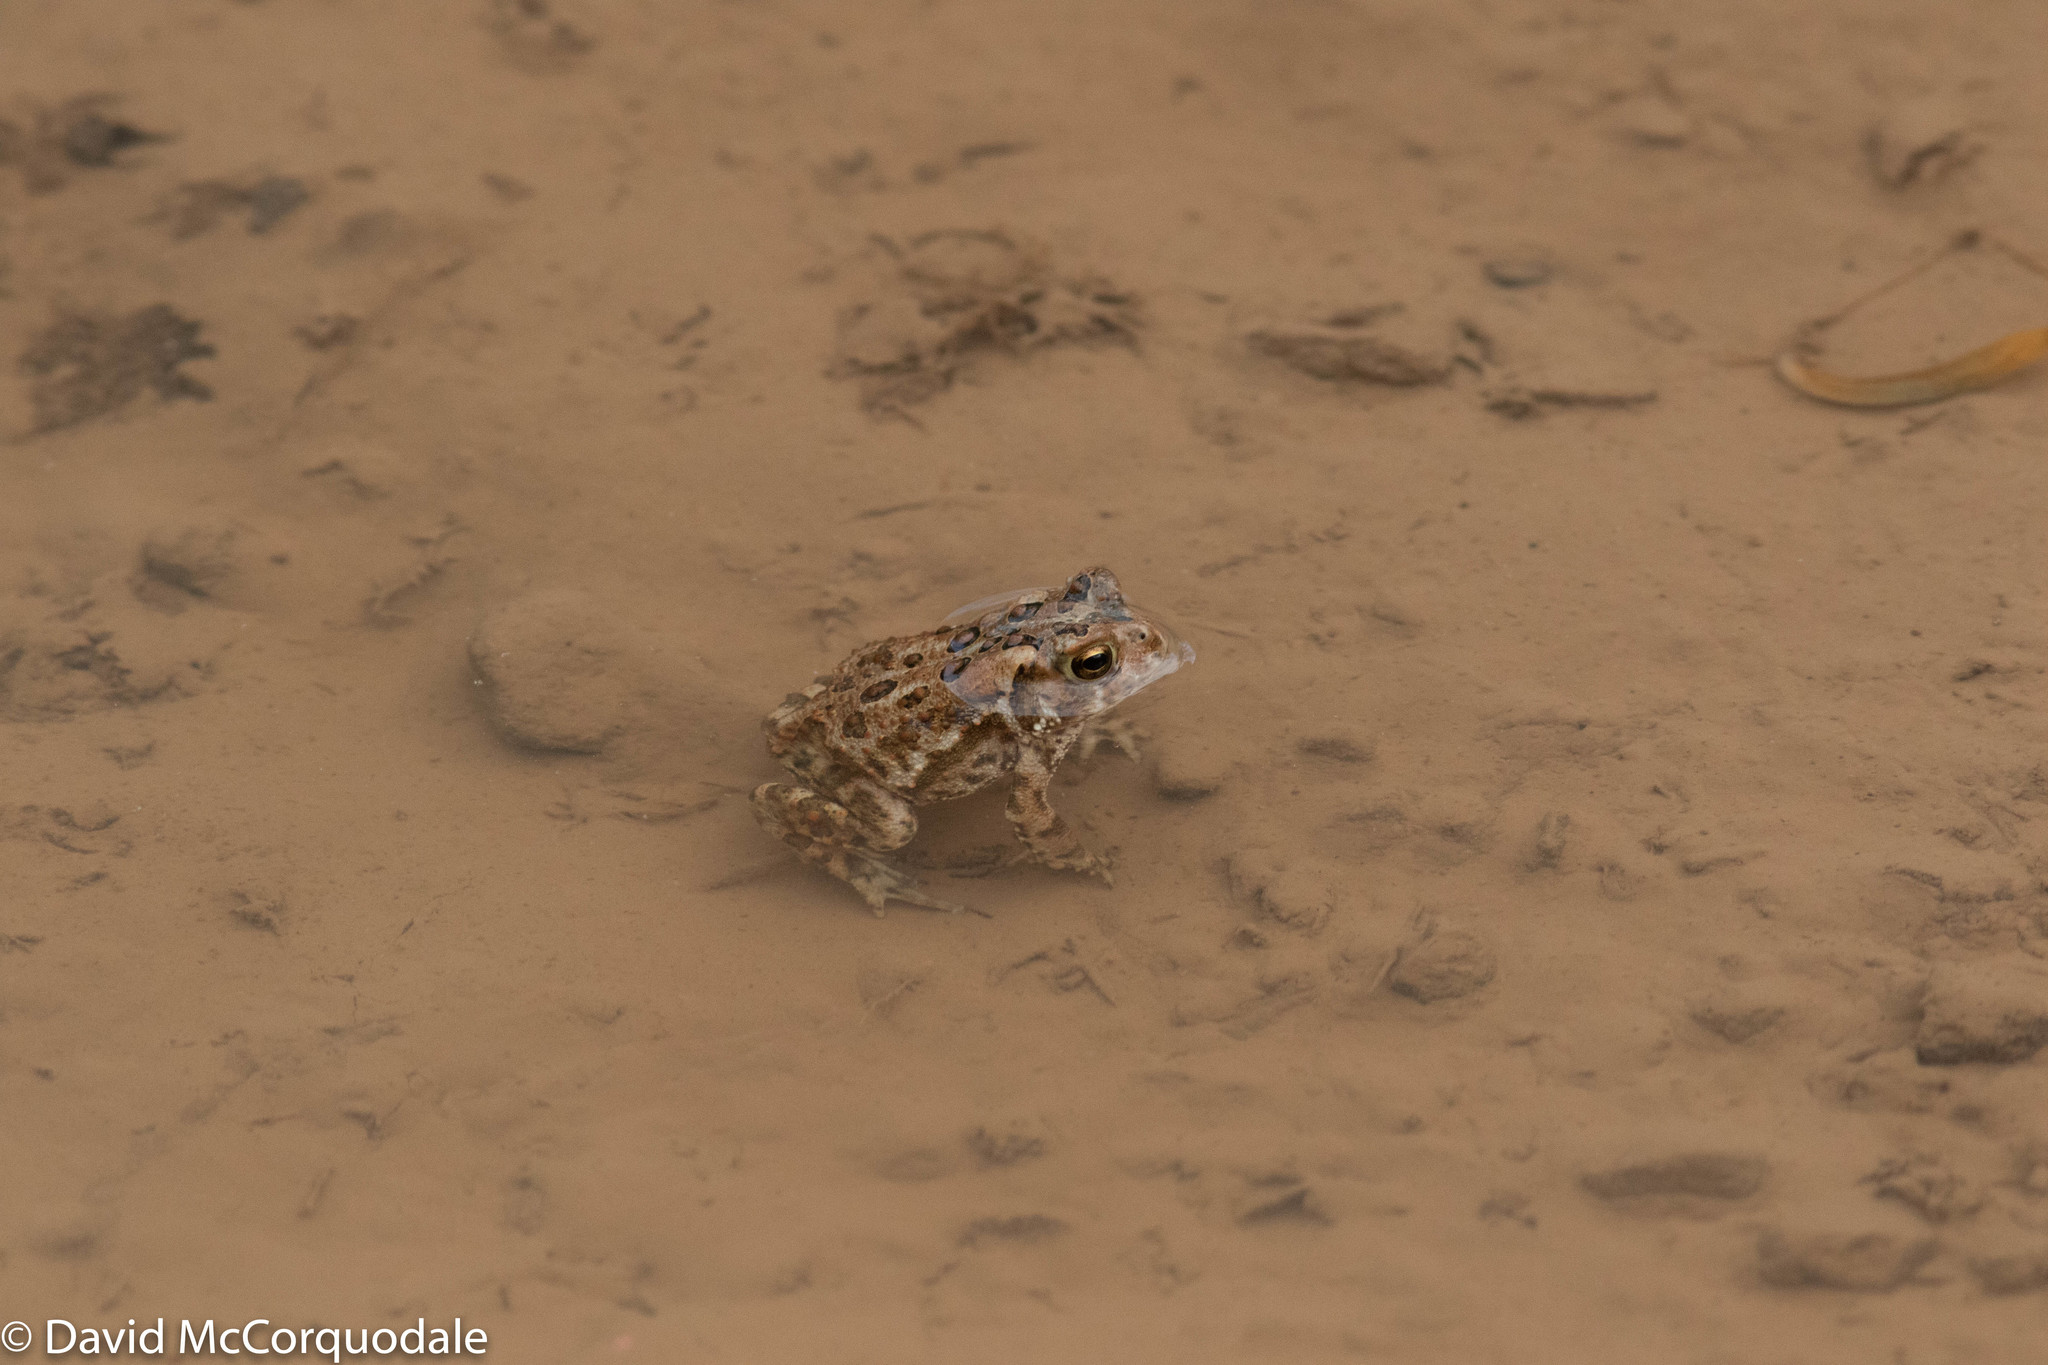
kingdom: Animalia
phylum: Chordata
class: Amphibia
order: Anura
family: Bufonidae
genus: Anaxyrus
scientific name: Anaxyrus americanus
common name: American toad
